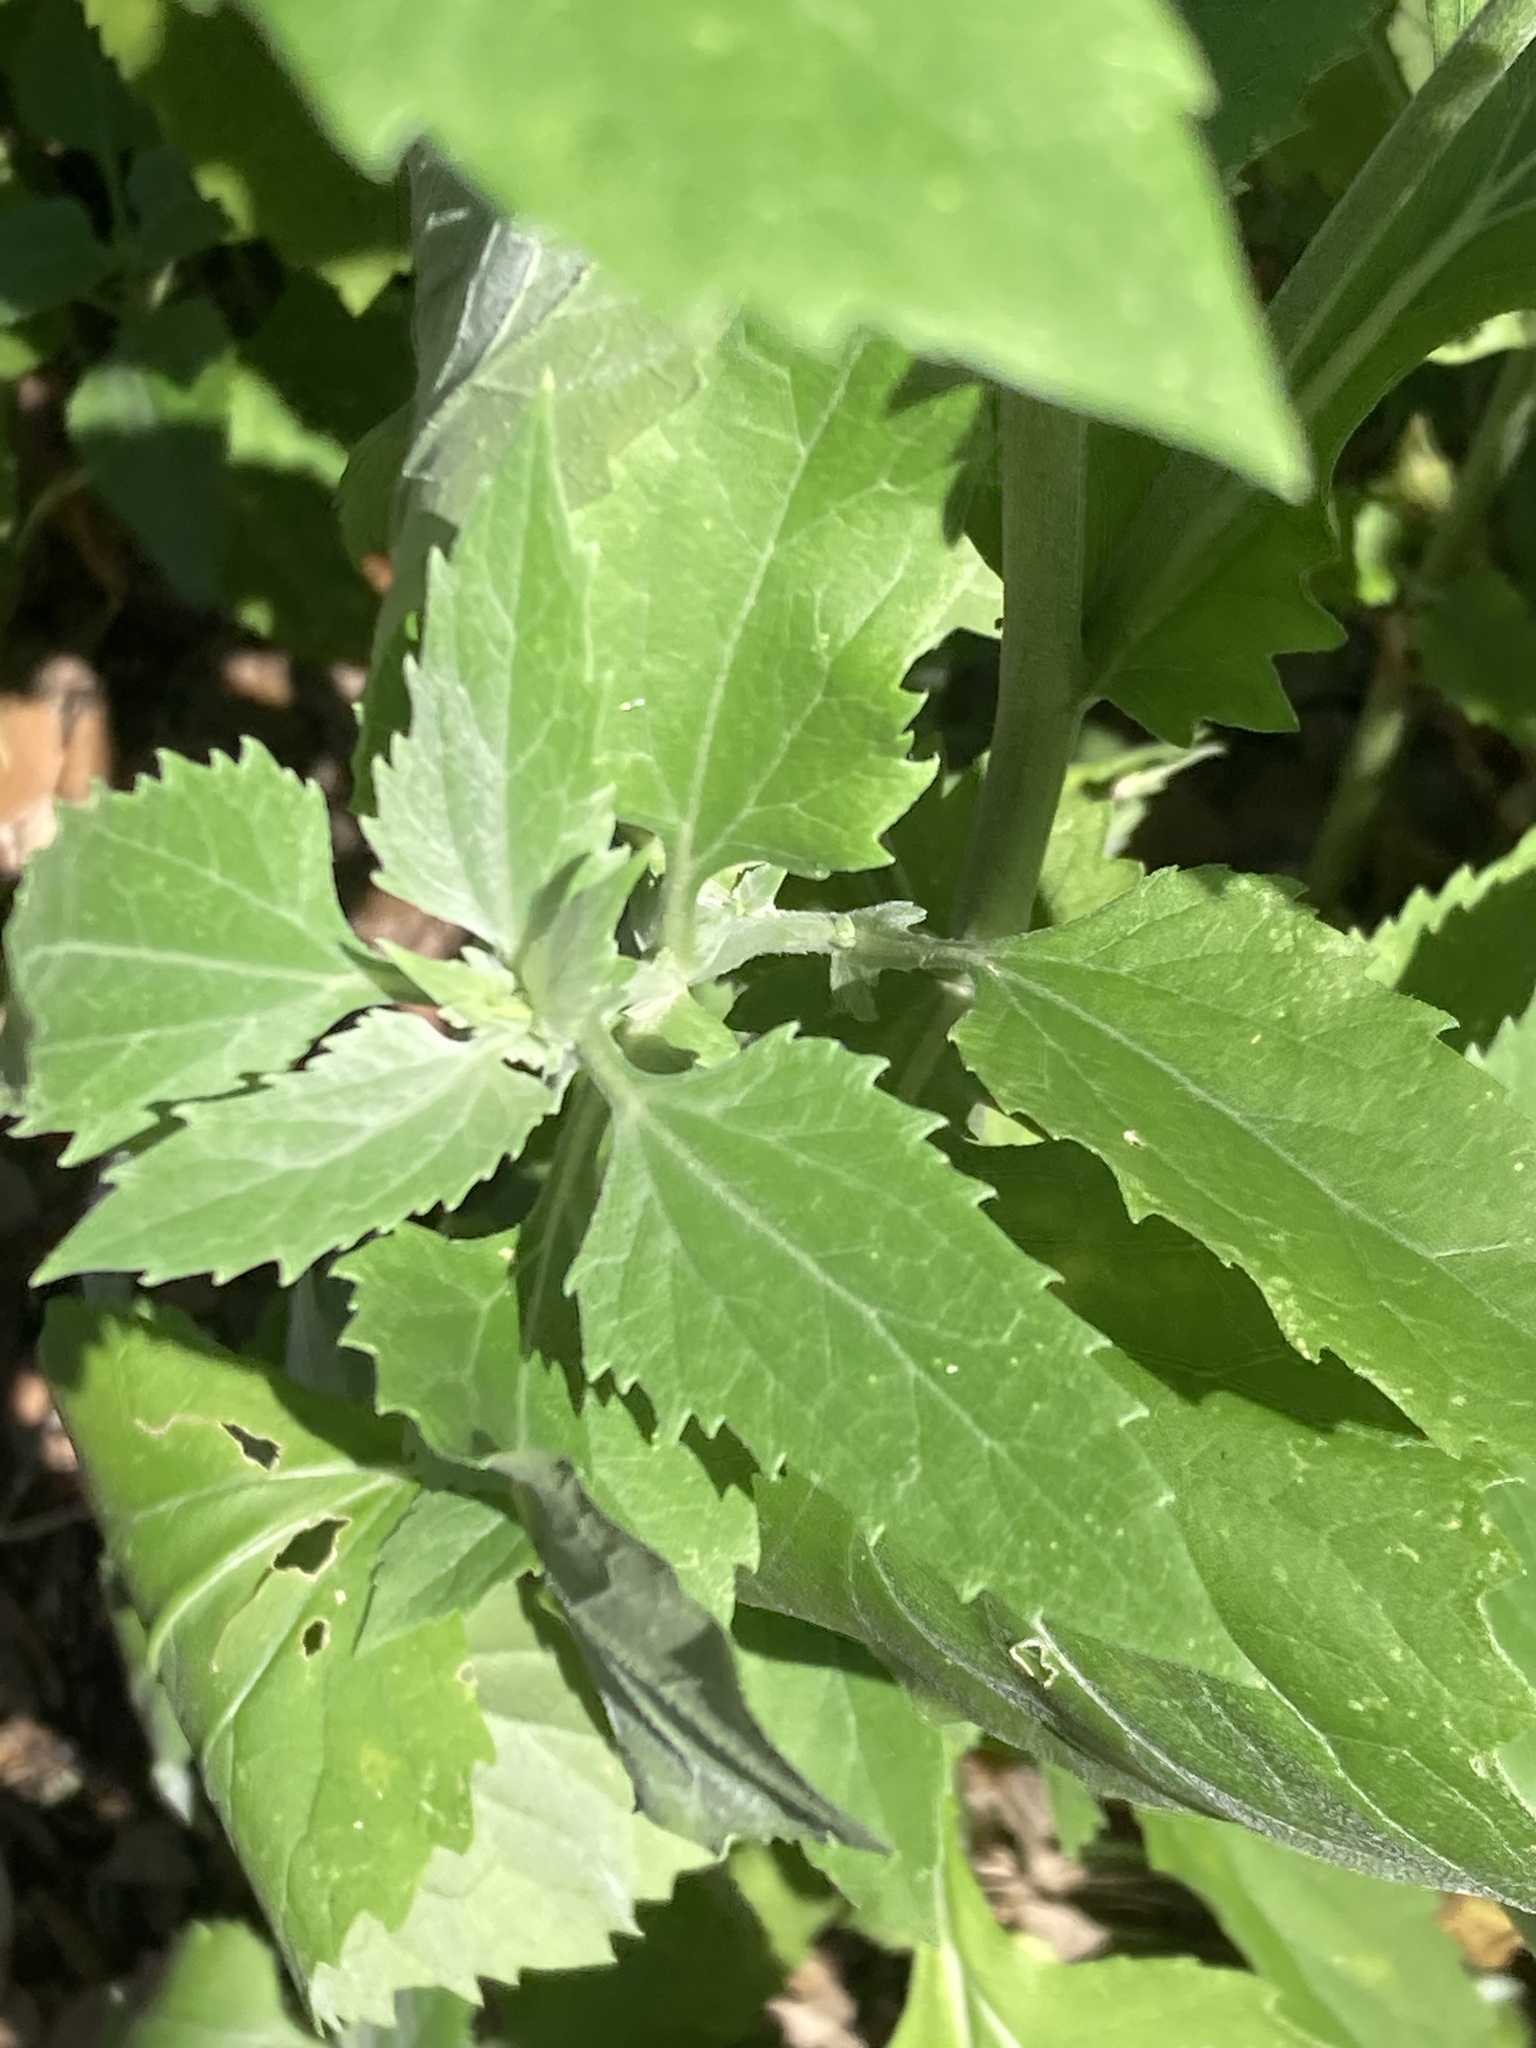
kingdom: Plantae
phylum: Tracheophyta
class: Magnoliopsida
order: Asterales
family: Asteraceae
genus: Verbesina
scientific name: Verbesina encelioides
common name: Golden crownbeard
